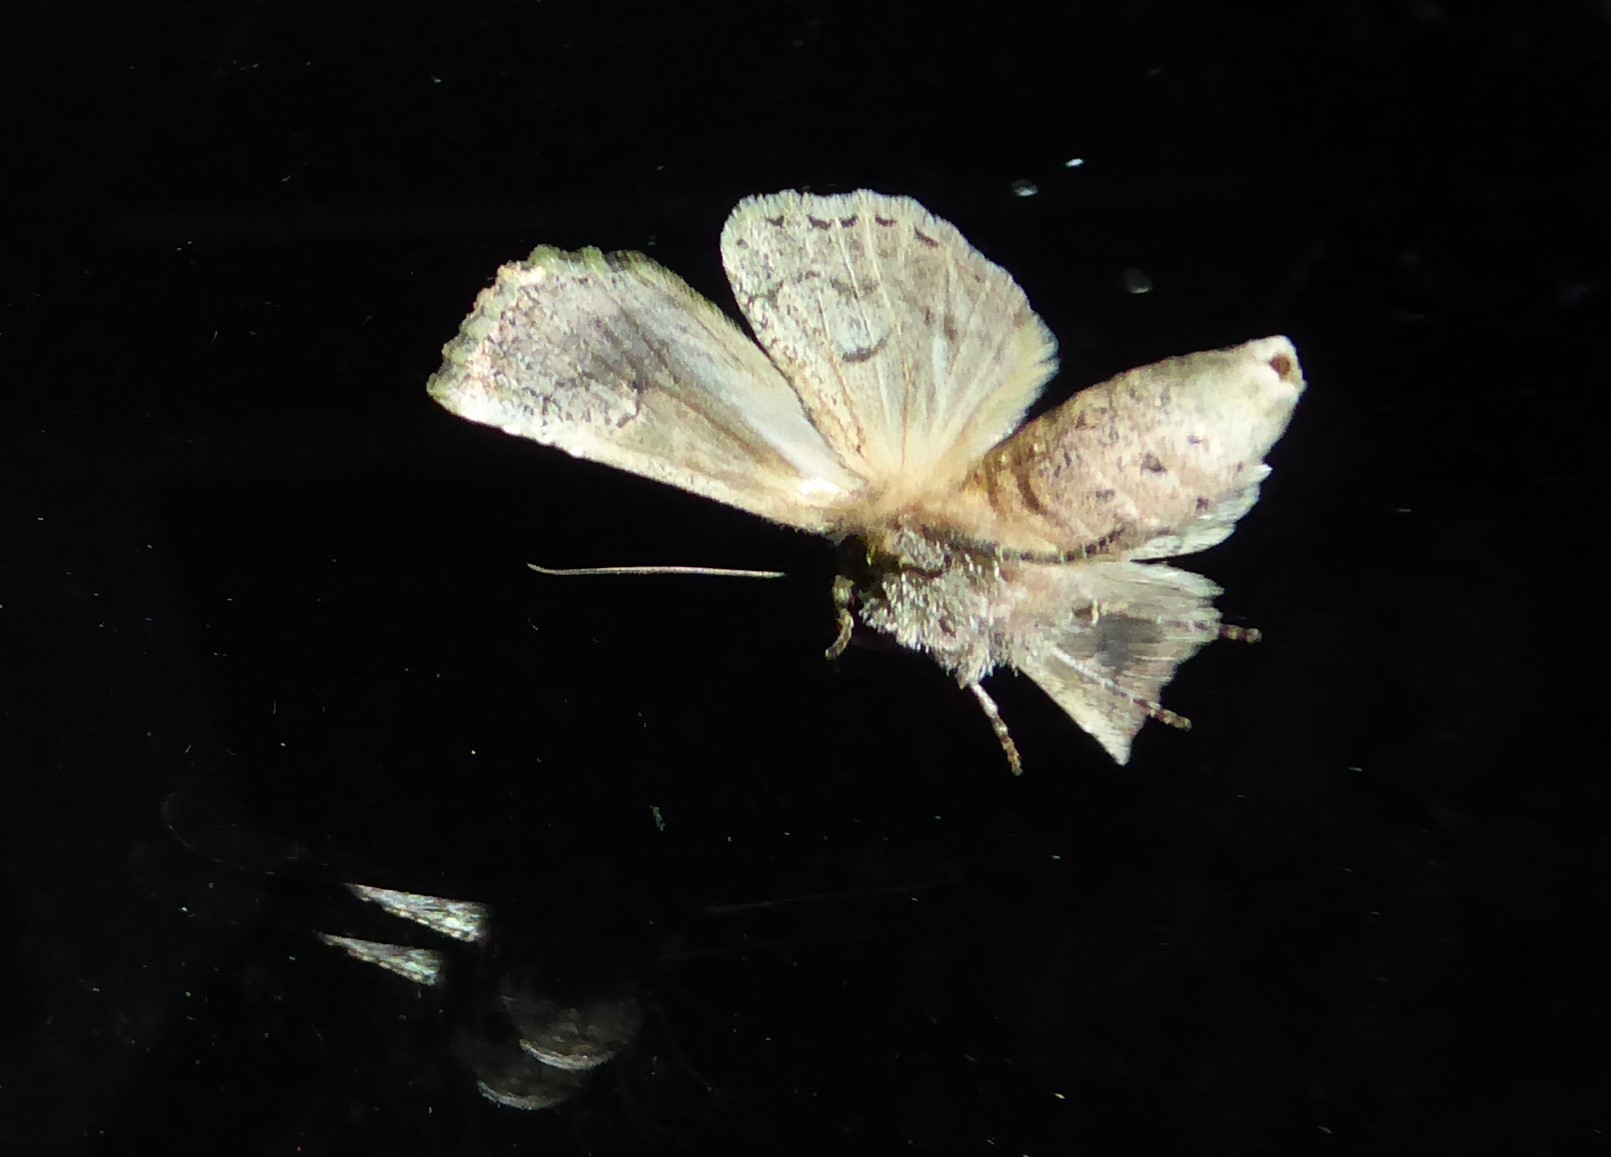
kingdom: Animalia
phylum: Arthropoda
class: Insecta
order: Lepidoptera
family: Noctuidae
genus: Meterana
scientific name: Meterana levis
